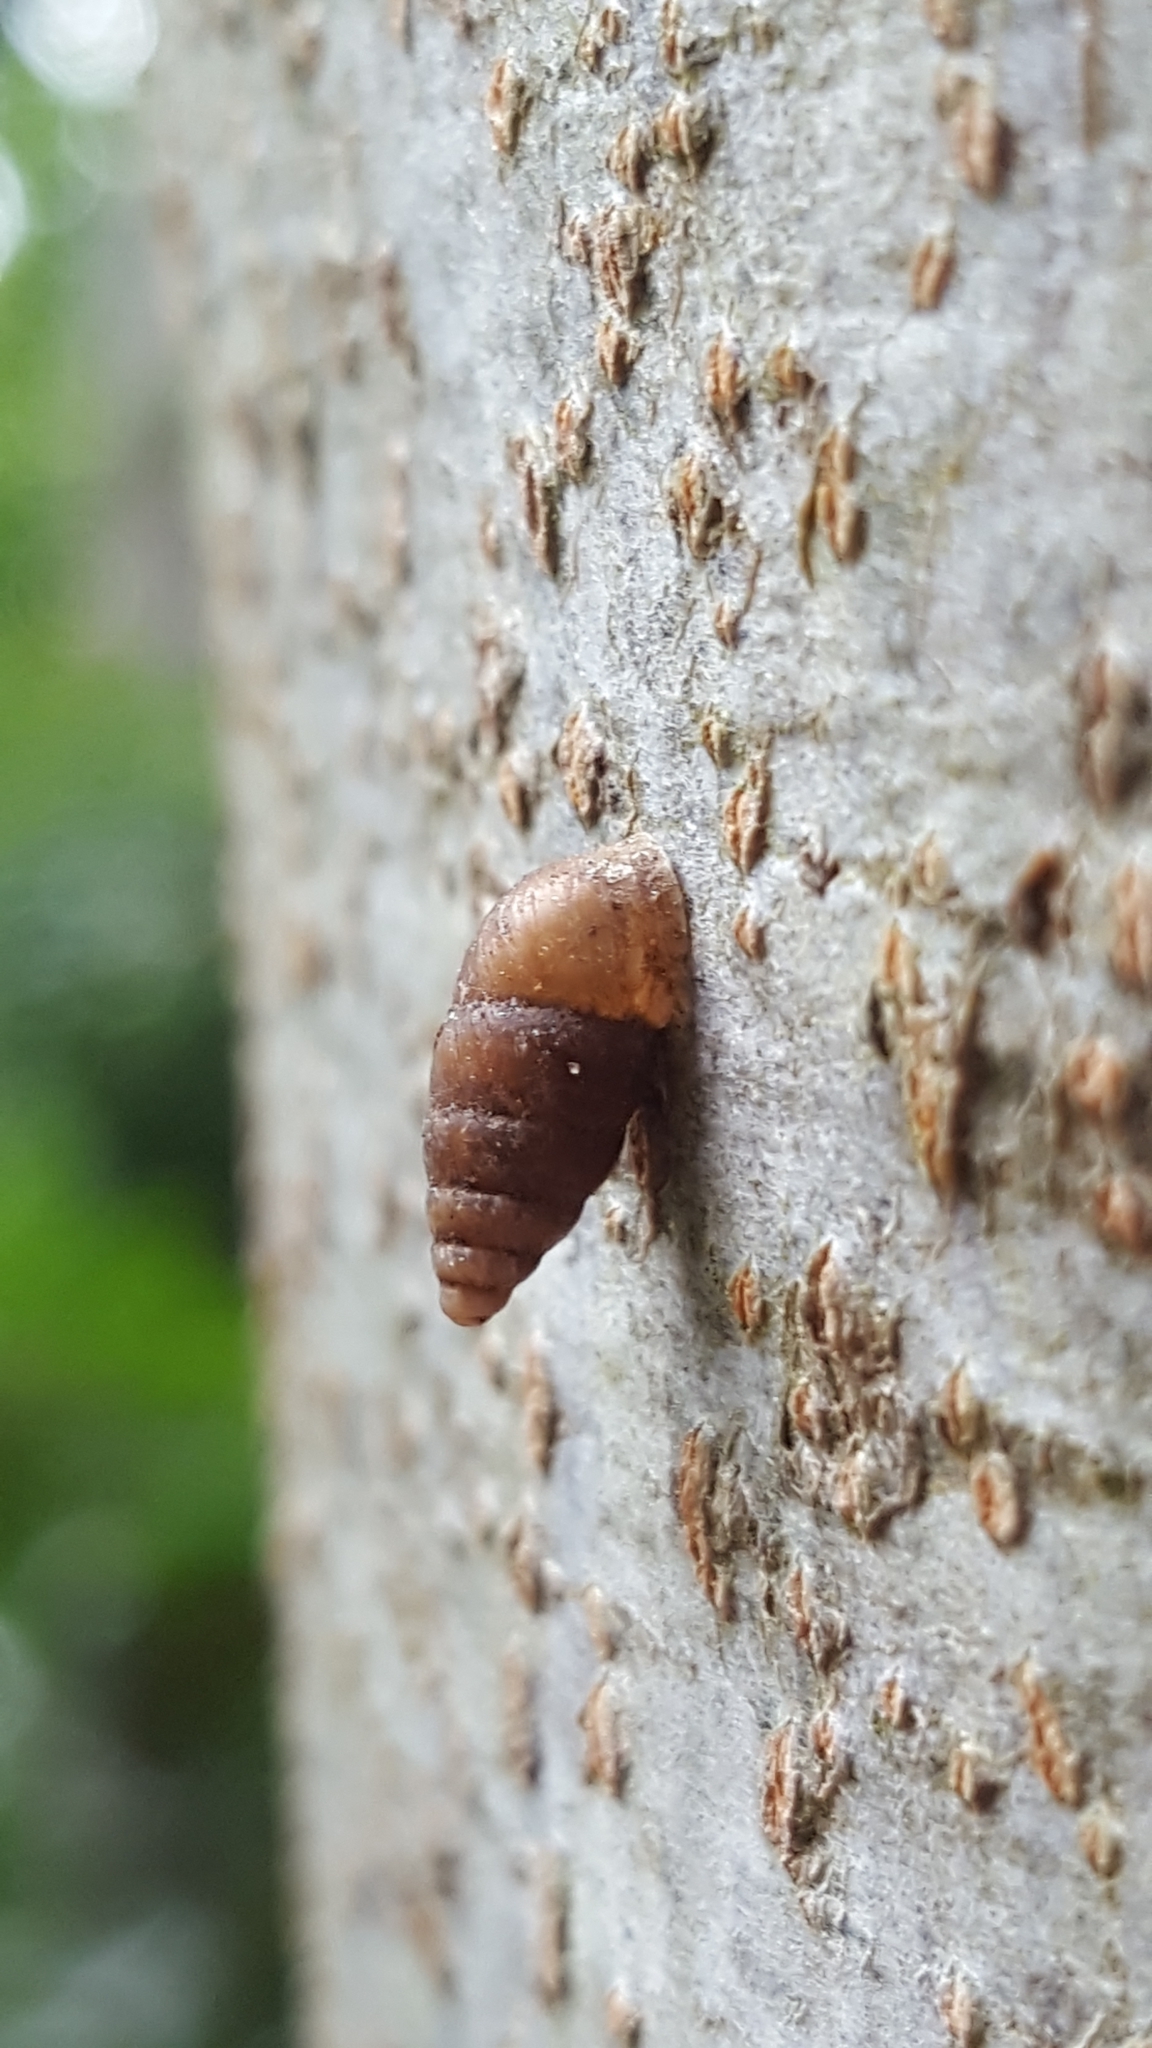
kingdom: Animalia
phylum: Mollusca
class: Gastropoda
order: Stylommatophora
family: Enidae
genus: Merdigera
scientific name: Merdigera obscura
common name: Lesser bulin
